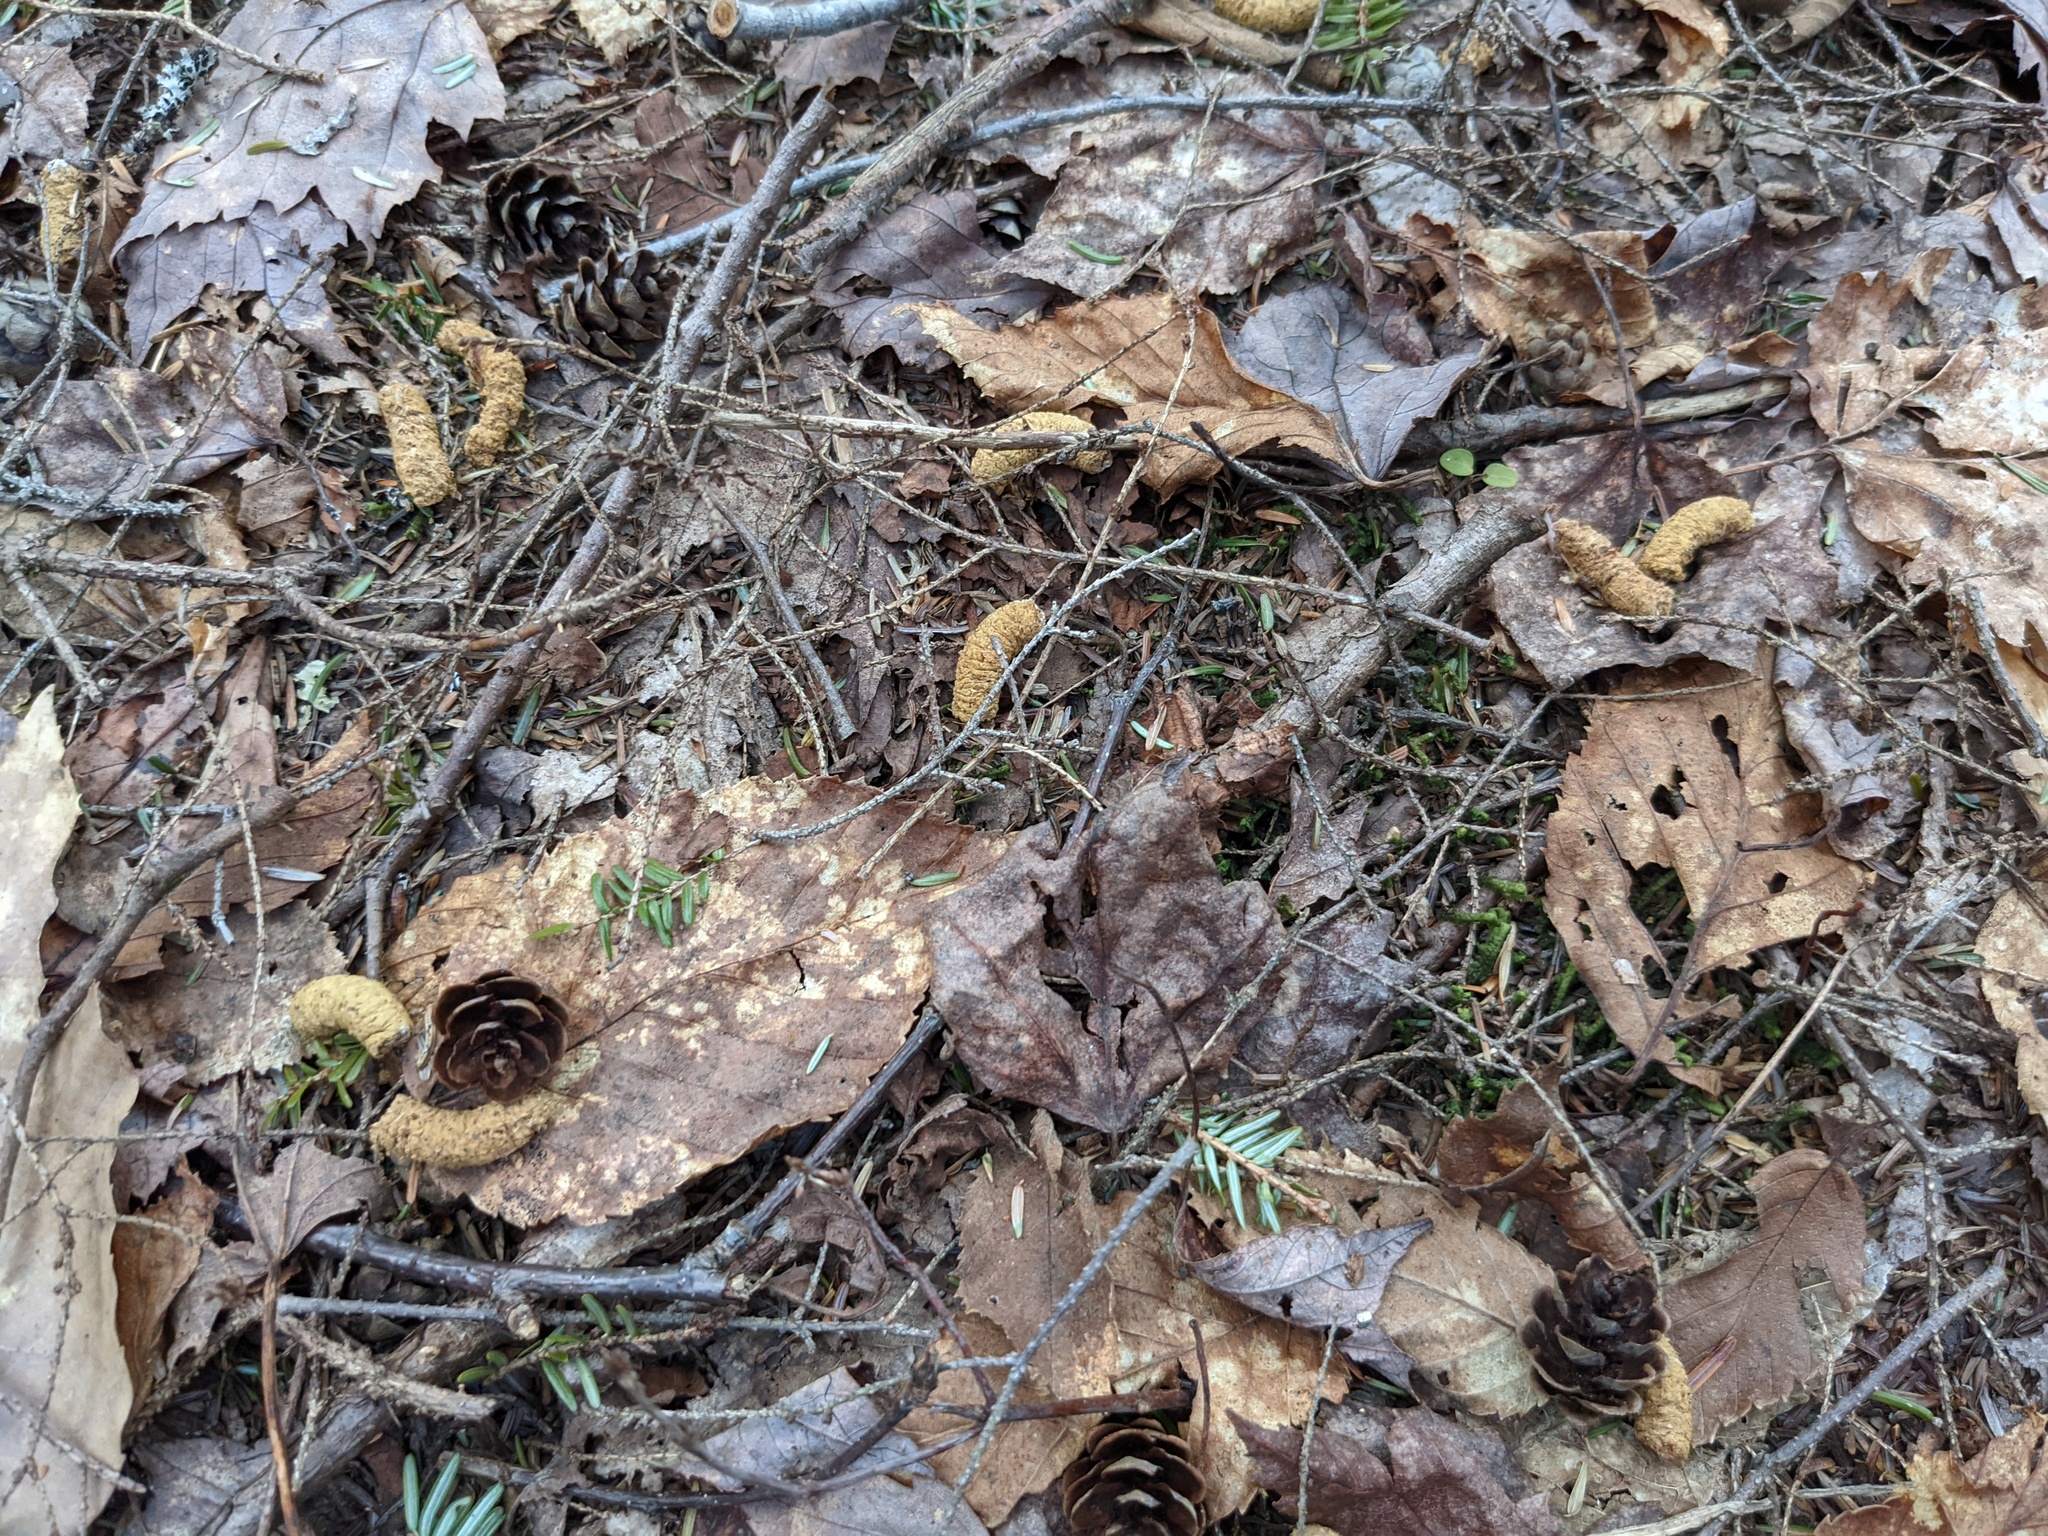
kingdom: Animalia
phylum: Chordata
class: Aves
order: Galliformes
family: Phasianidae
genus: Bonasa
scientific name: Bonasa umbellus
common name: Ruffed grouse
